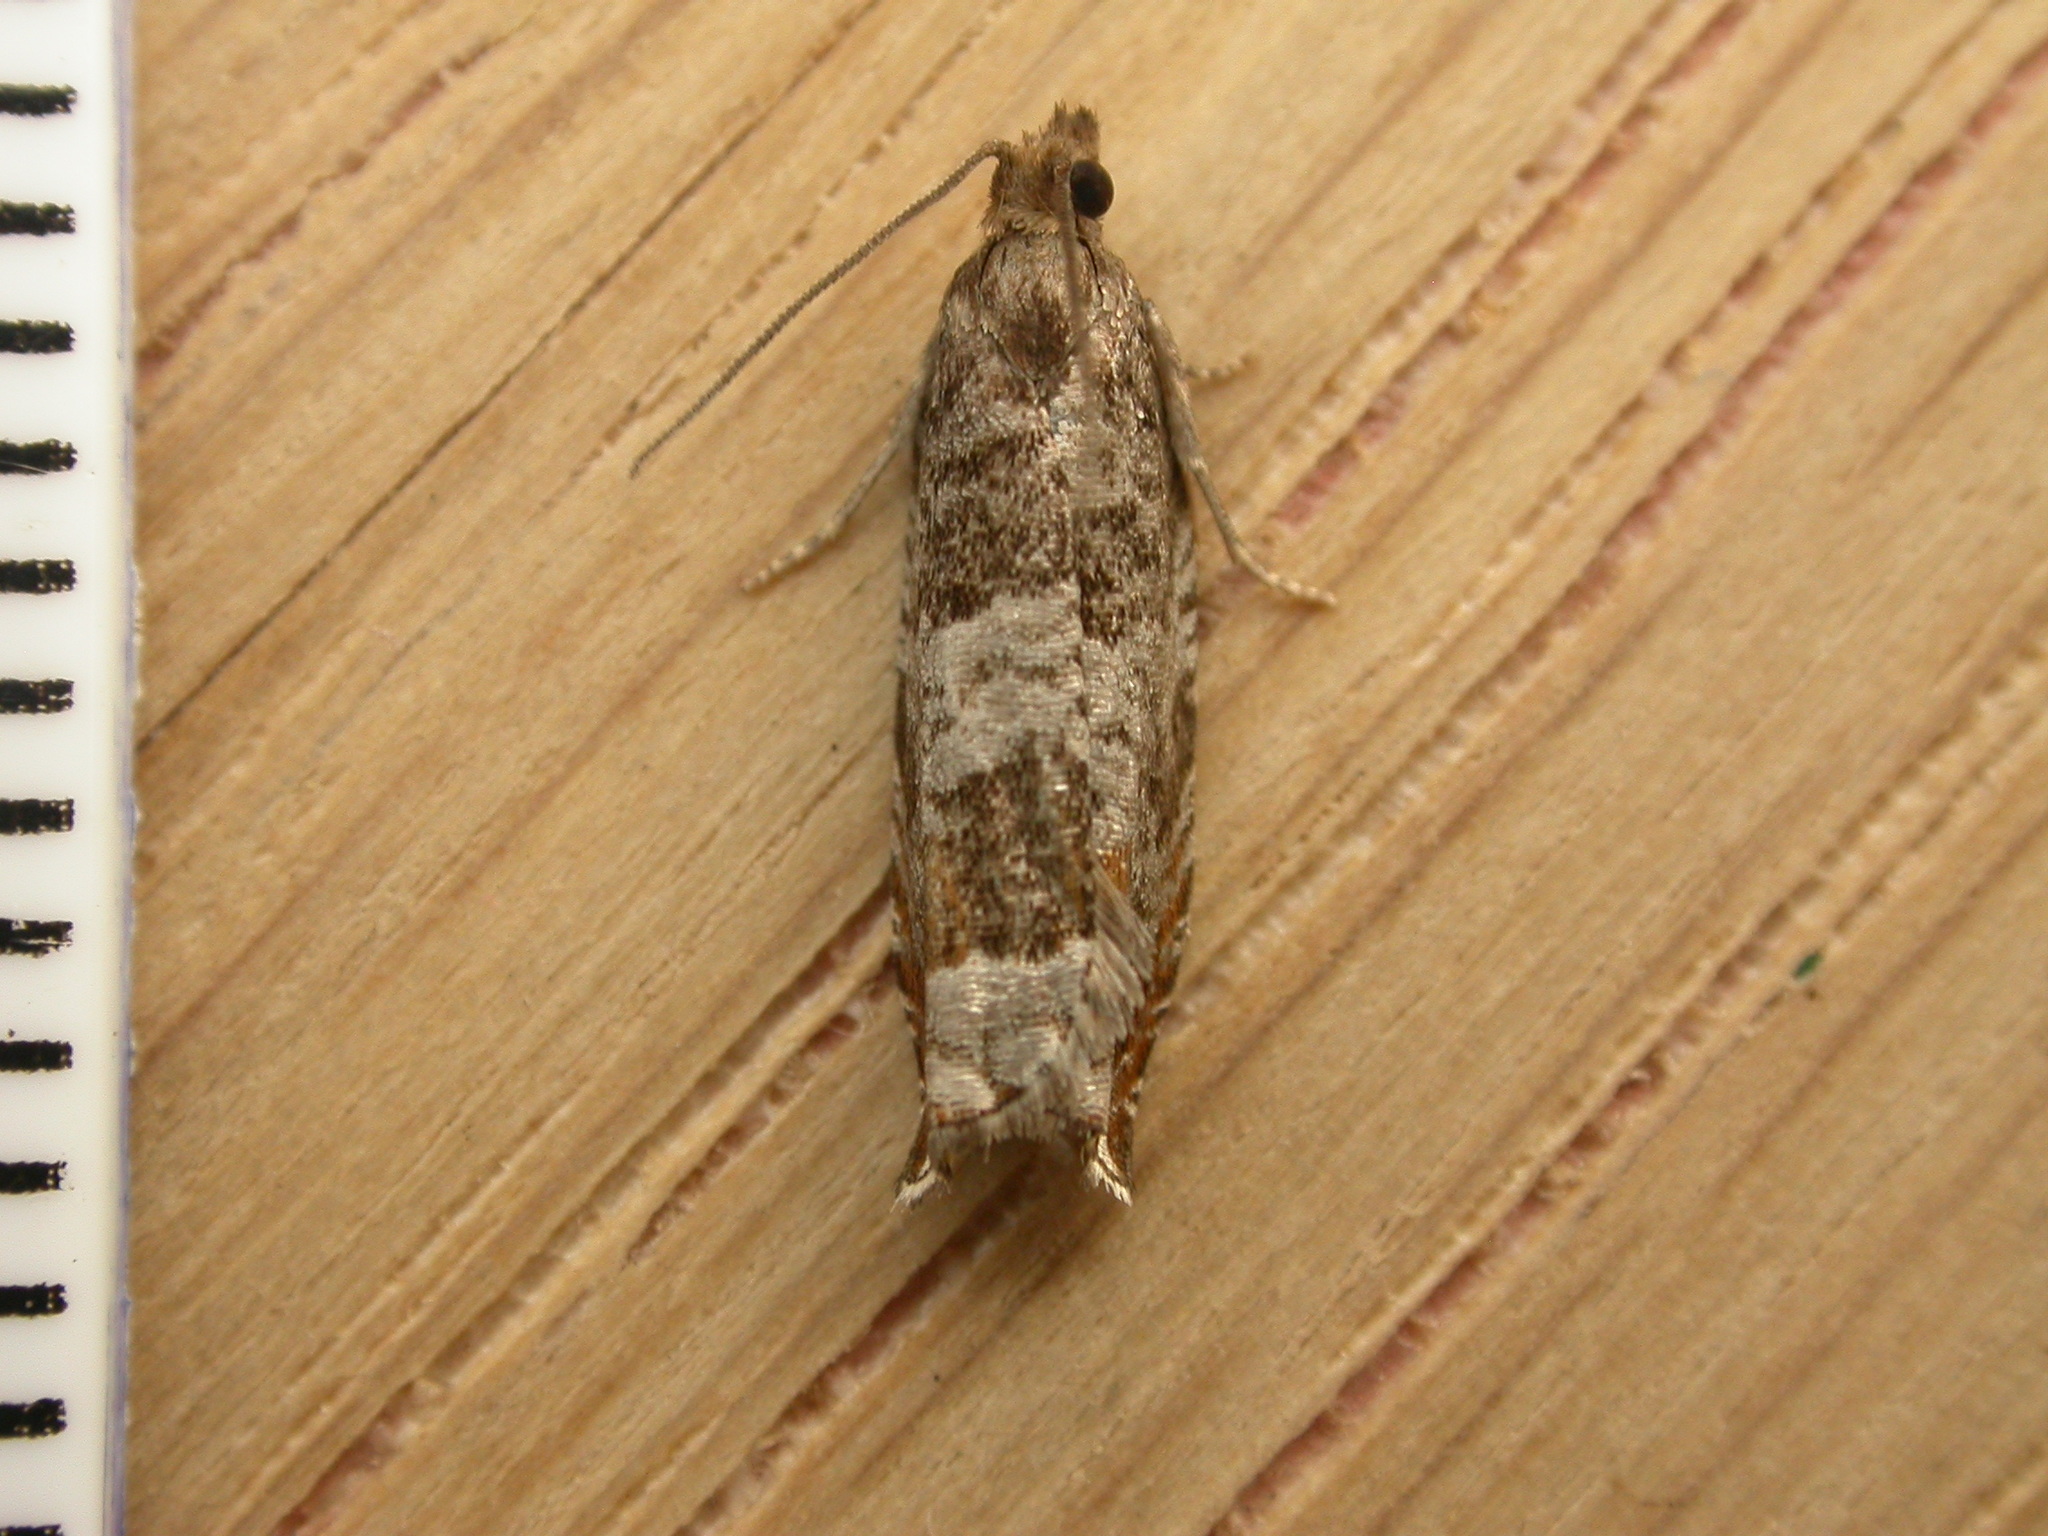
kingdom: Animalia
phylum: Arthropoda
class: Insecta
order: Lepidoptera
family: Tortricidae
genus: Ancylis
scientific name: Ancylis achatana
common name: Triangle-marked roller
